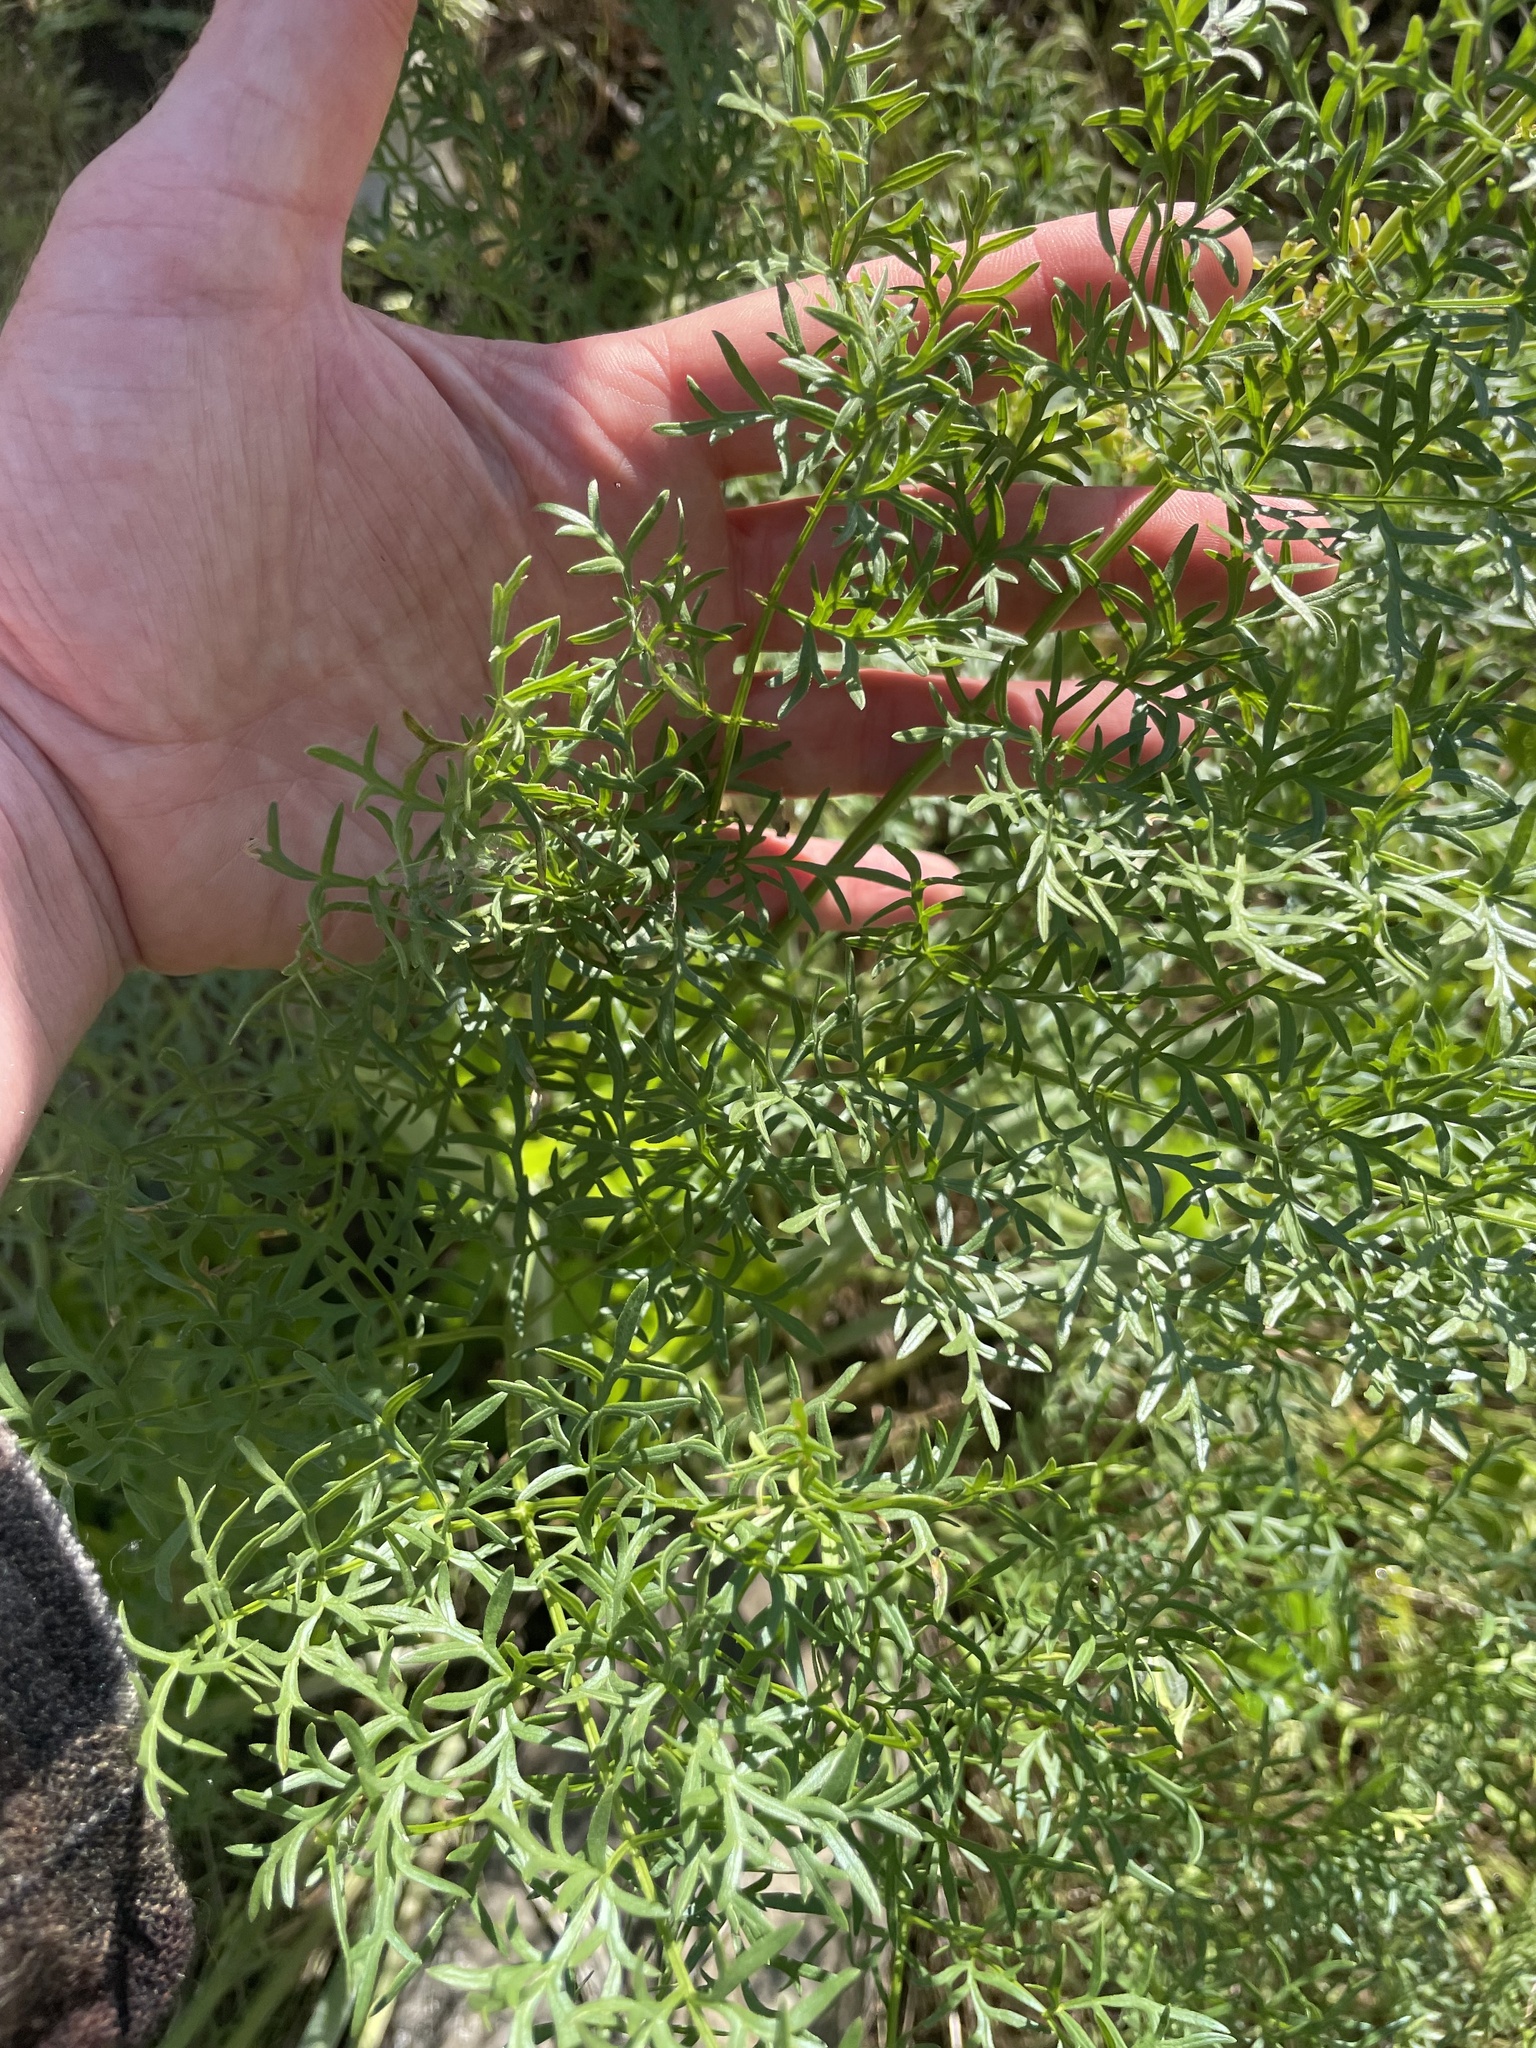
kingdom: Plantae
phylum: Tracheophyta
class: Magnoliopsida
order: Apiales
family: Apiaceae
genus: Lomatium
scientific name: Lomatium multifidum
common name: Carrot-leaved biscuitroot
